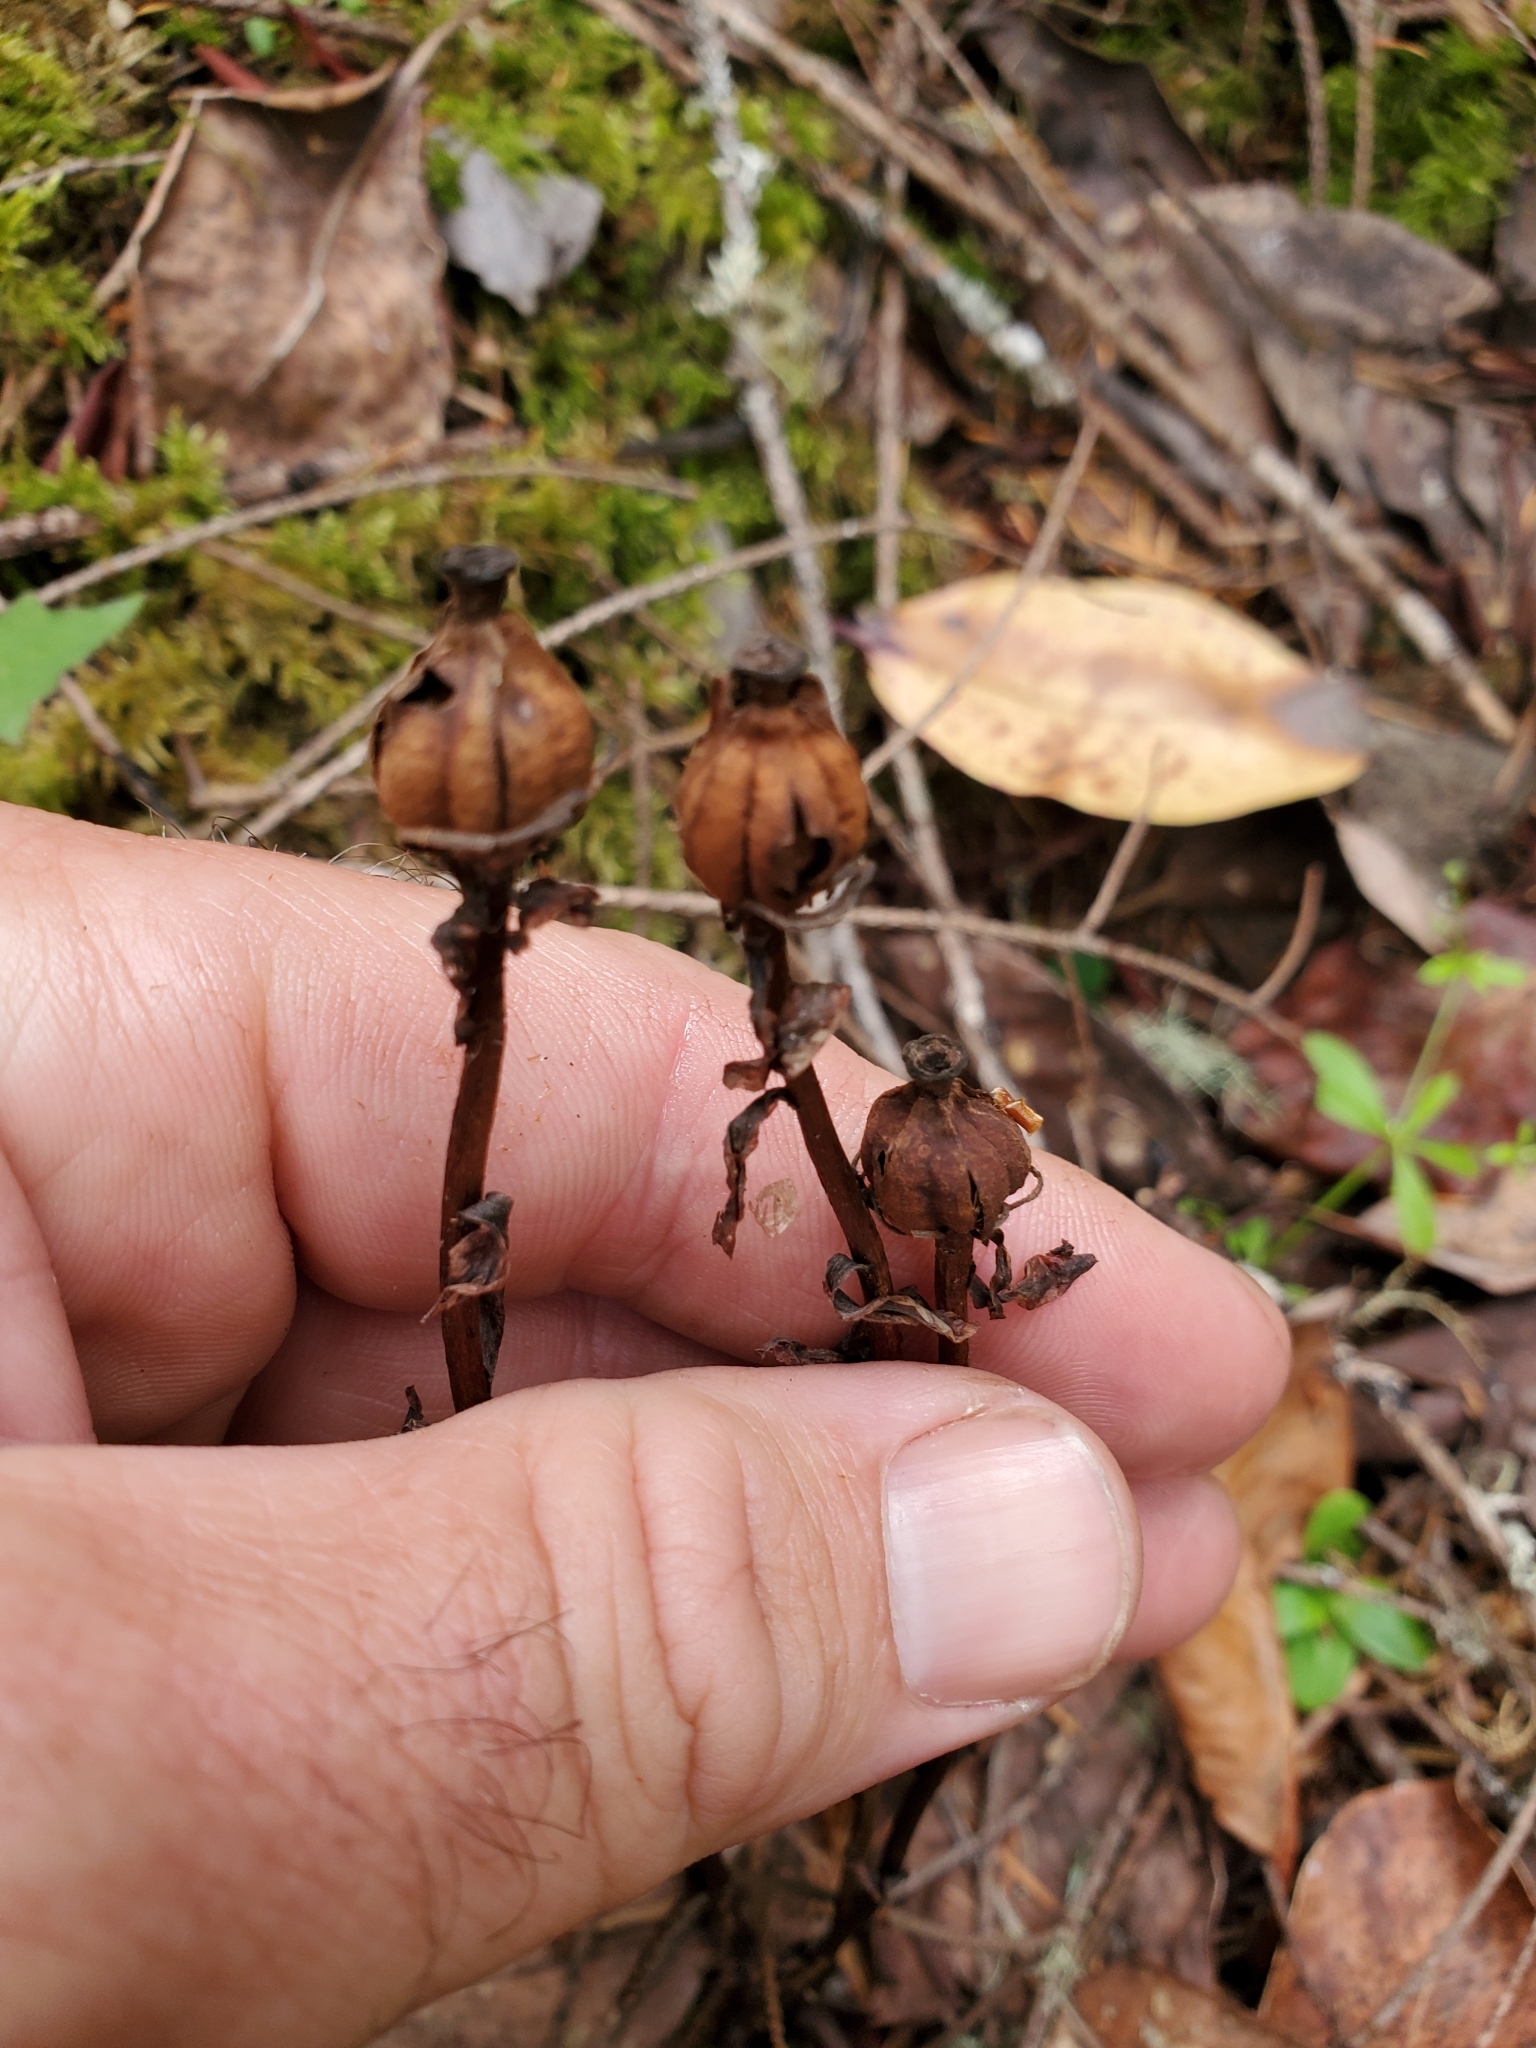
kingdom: Plantae
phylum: Tracheophyta
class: Magnoliopsida
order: Ericales
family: Ericaceae
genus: Monotropa
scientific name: Monotropa uniflora
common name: Convulsion root
